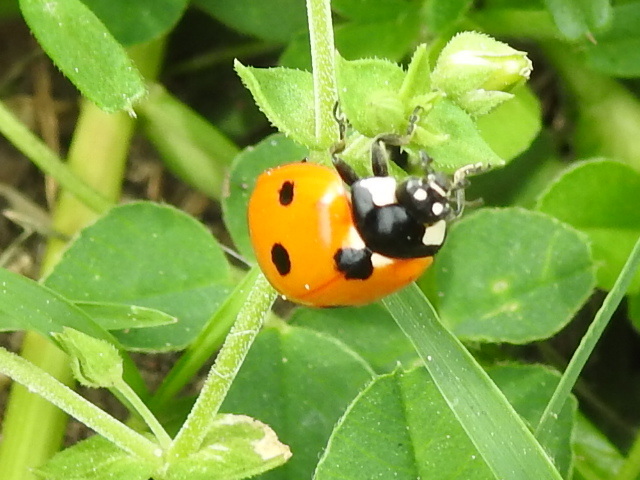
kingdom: Animalia
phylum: Arthropoda
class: Insecta
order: Coleoptera
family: Coccinellidae
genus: Coccinella
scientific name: Coccinella septempunctata
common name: Sevenspotted lady beetle
